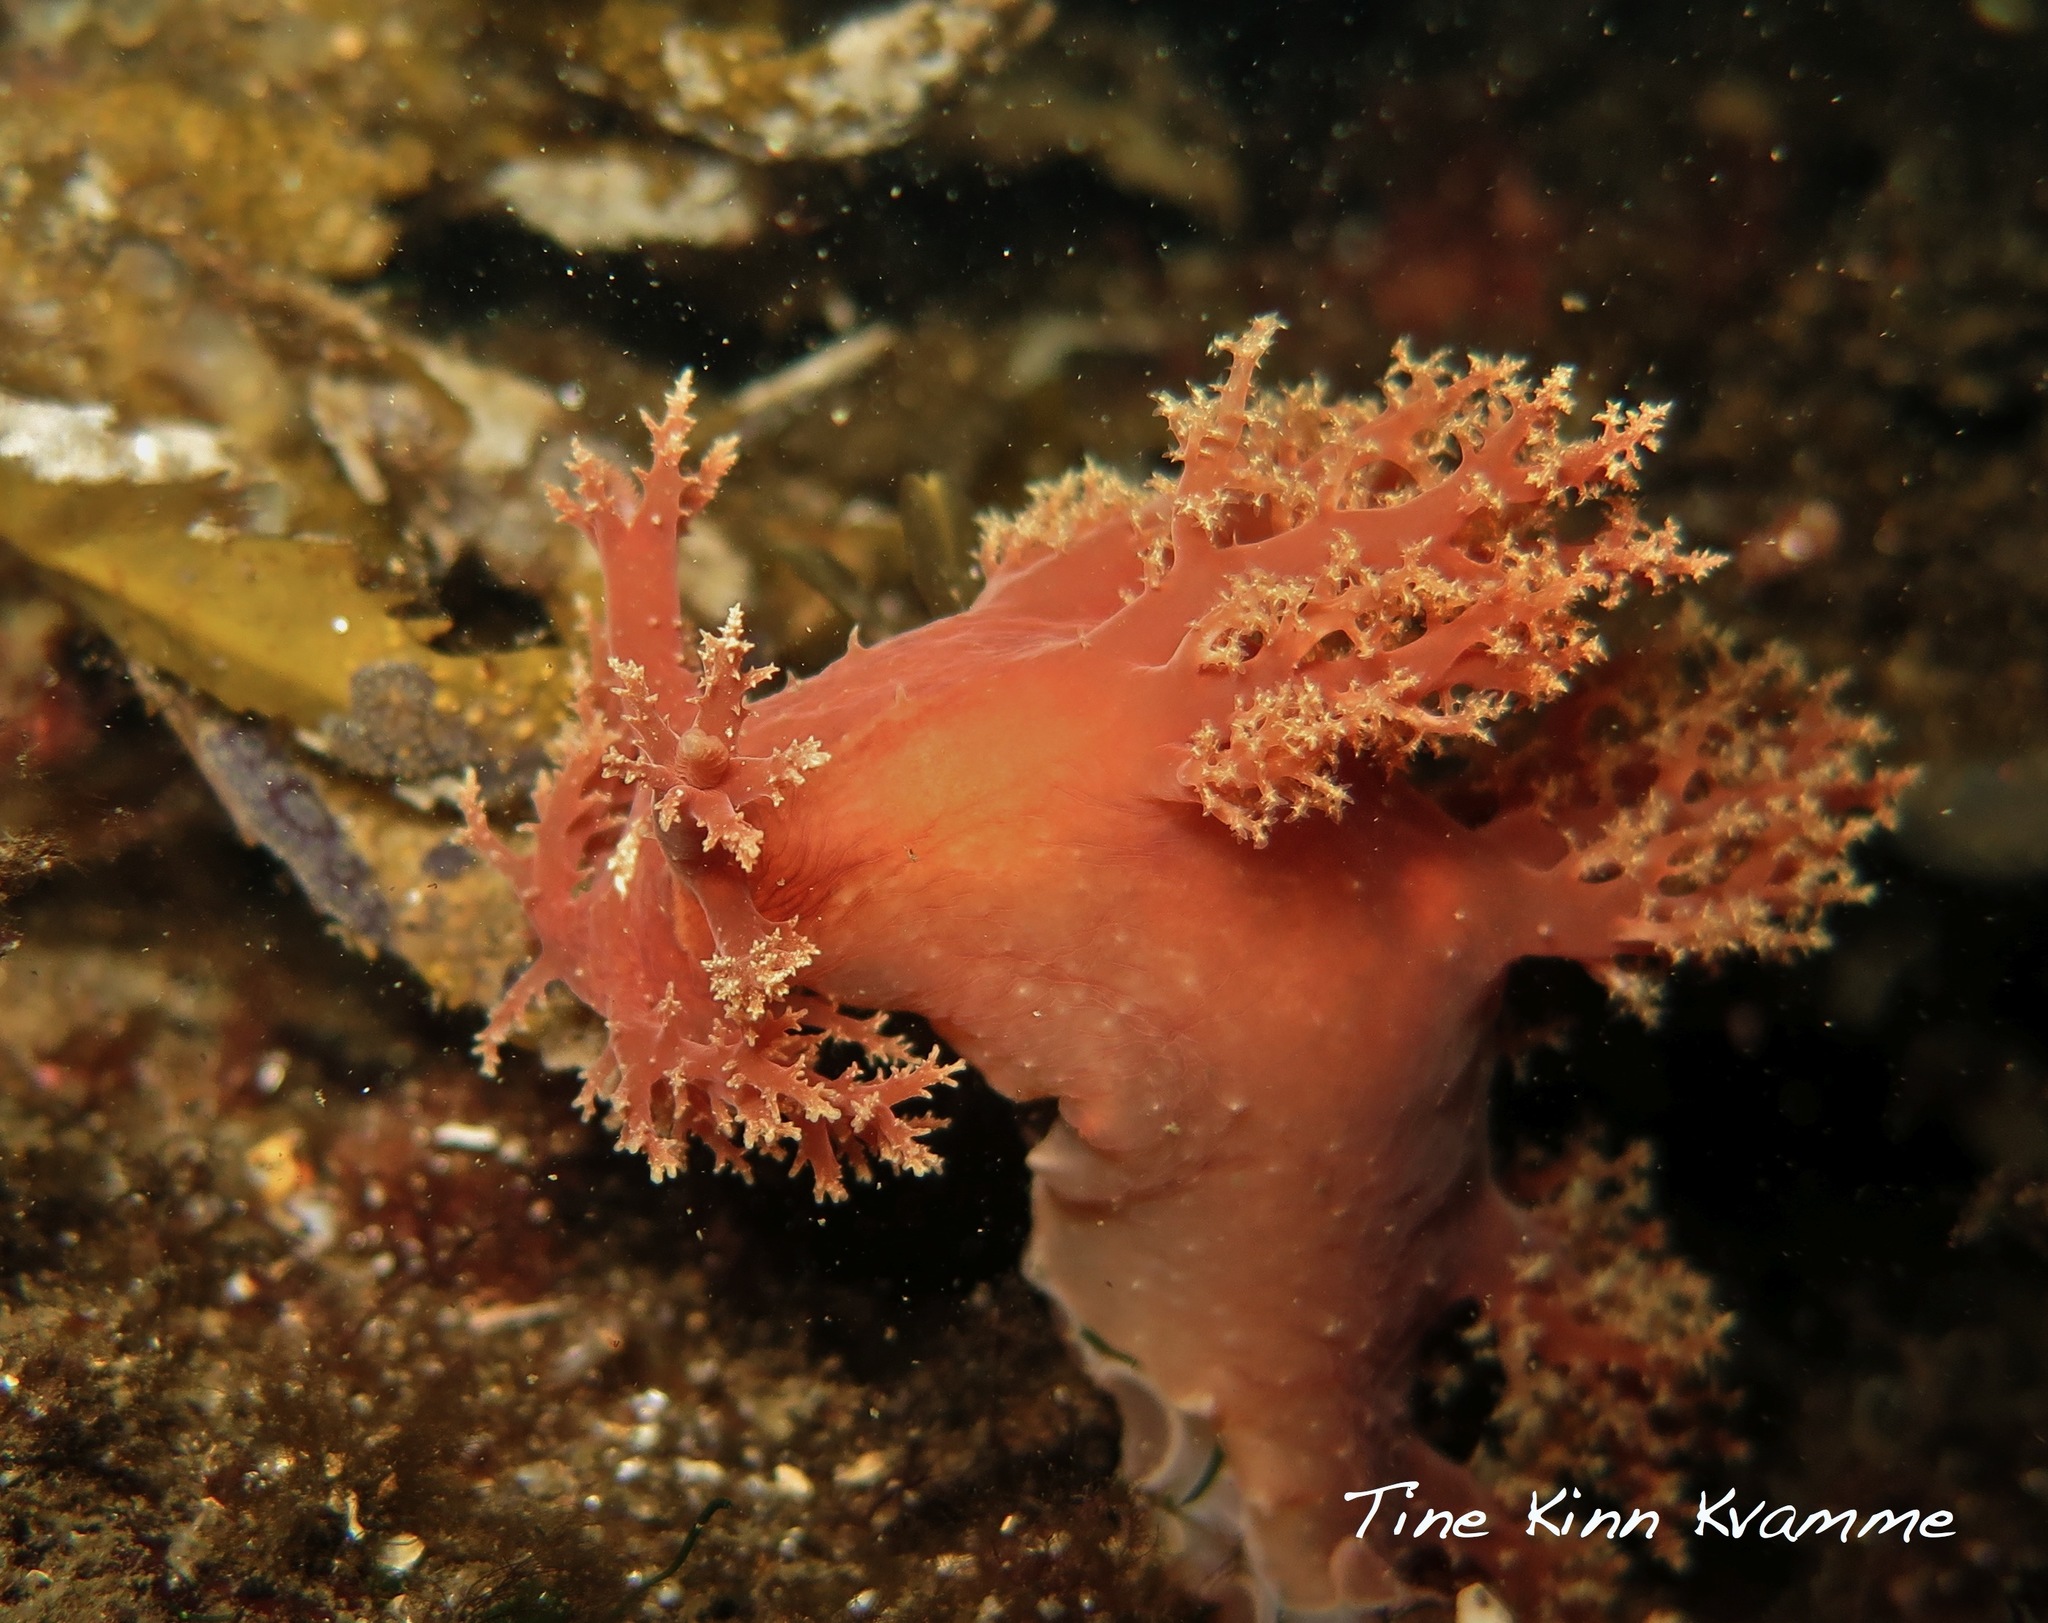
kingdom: Animalia
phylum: Mollusca
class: Gastropoda
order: Nudibranchia
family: Dendronotidae
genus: Dendronotus
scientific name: Dendronotus frondosus
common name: Bushy-backed nudibranch
